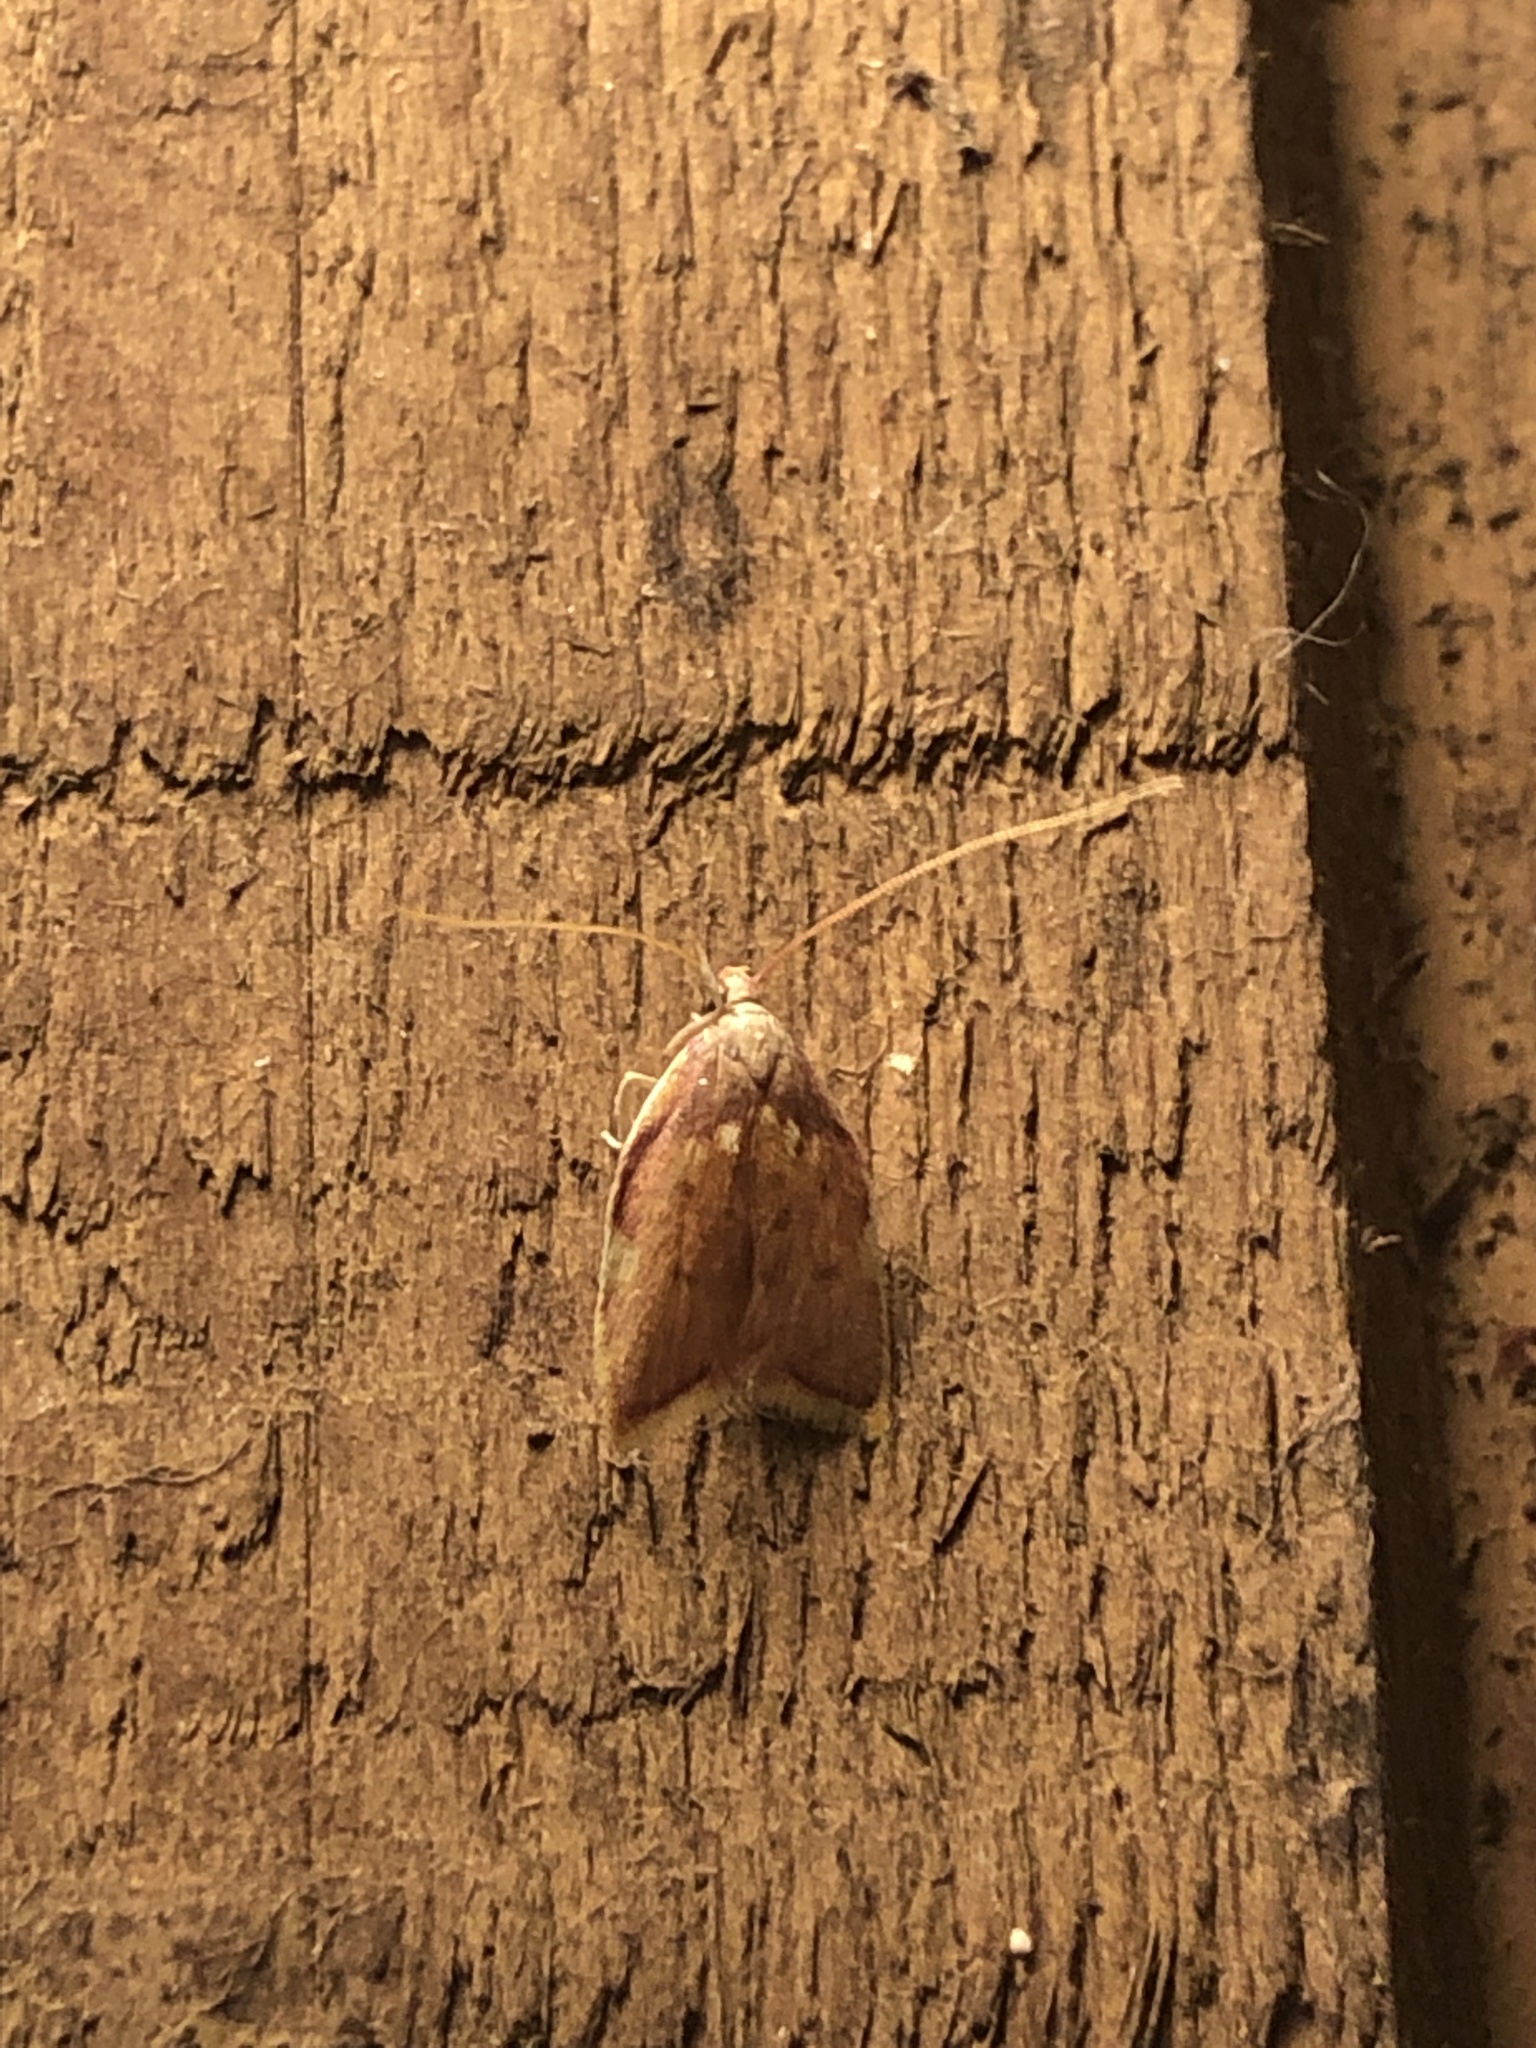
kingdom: Animalia
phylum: Arthropoda
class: Insecta
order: Lepidoptera
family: Peleopodidae
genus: Carcina
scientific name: Carcina quercana
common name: Moth
